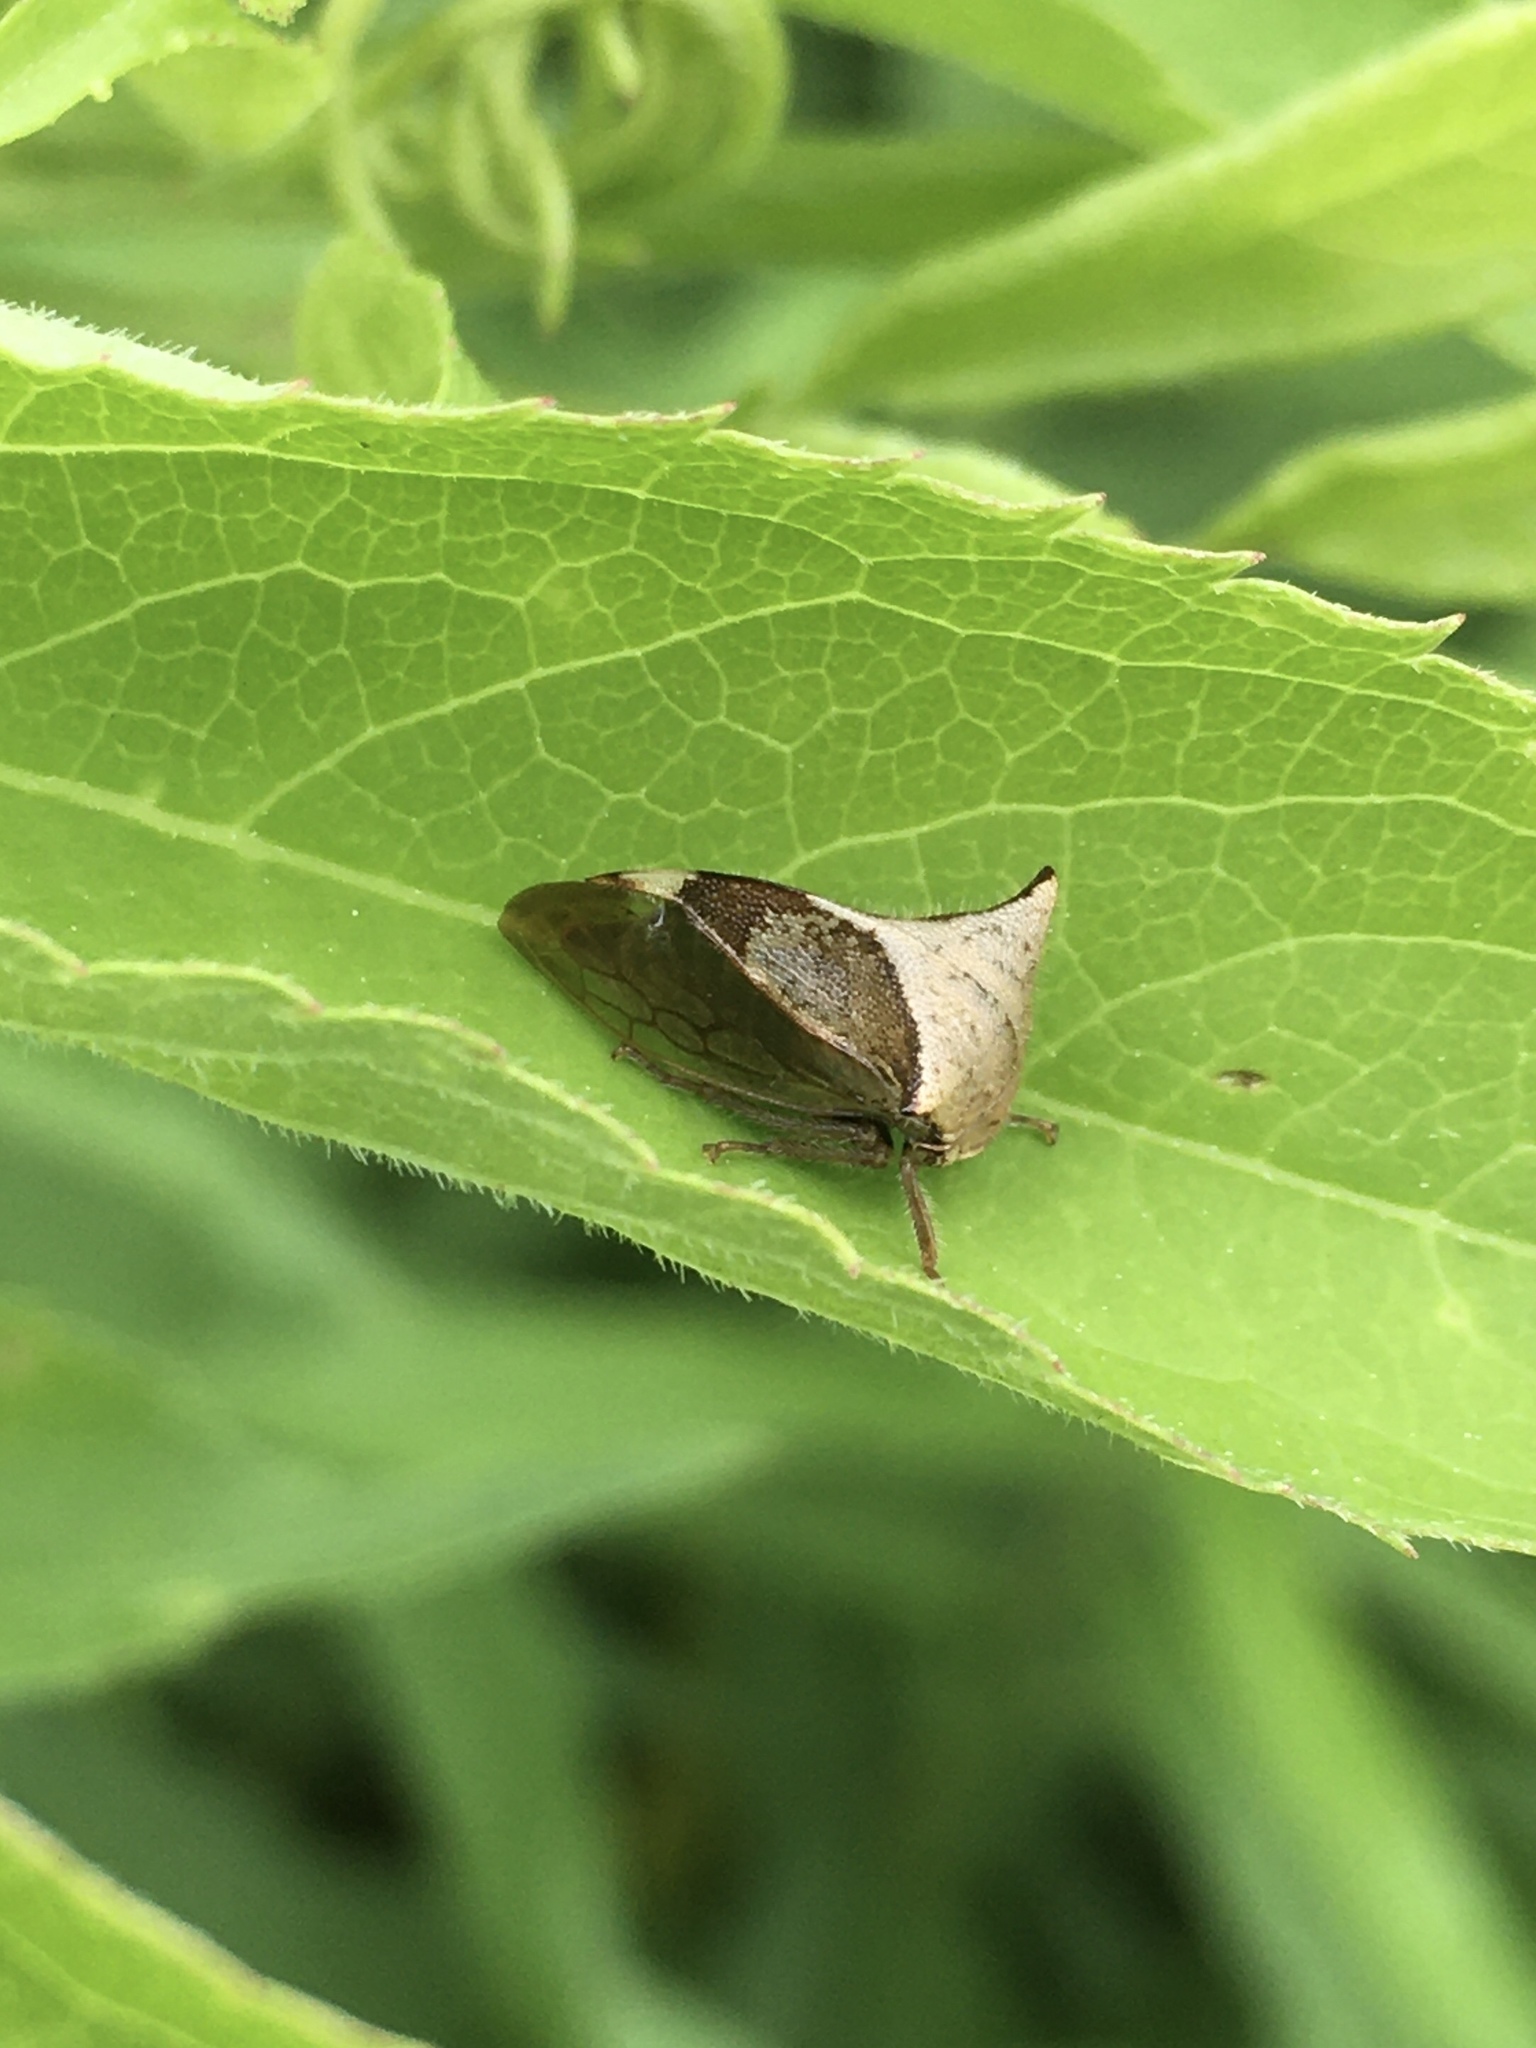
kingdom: Animalia
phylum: Arthropoda
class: Insecta
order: Hemiptera
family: Membracidae
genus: Stictocephala
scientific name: Stictocephala diceros
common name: Two-horned treehopper
